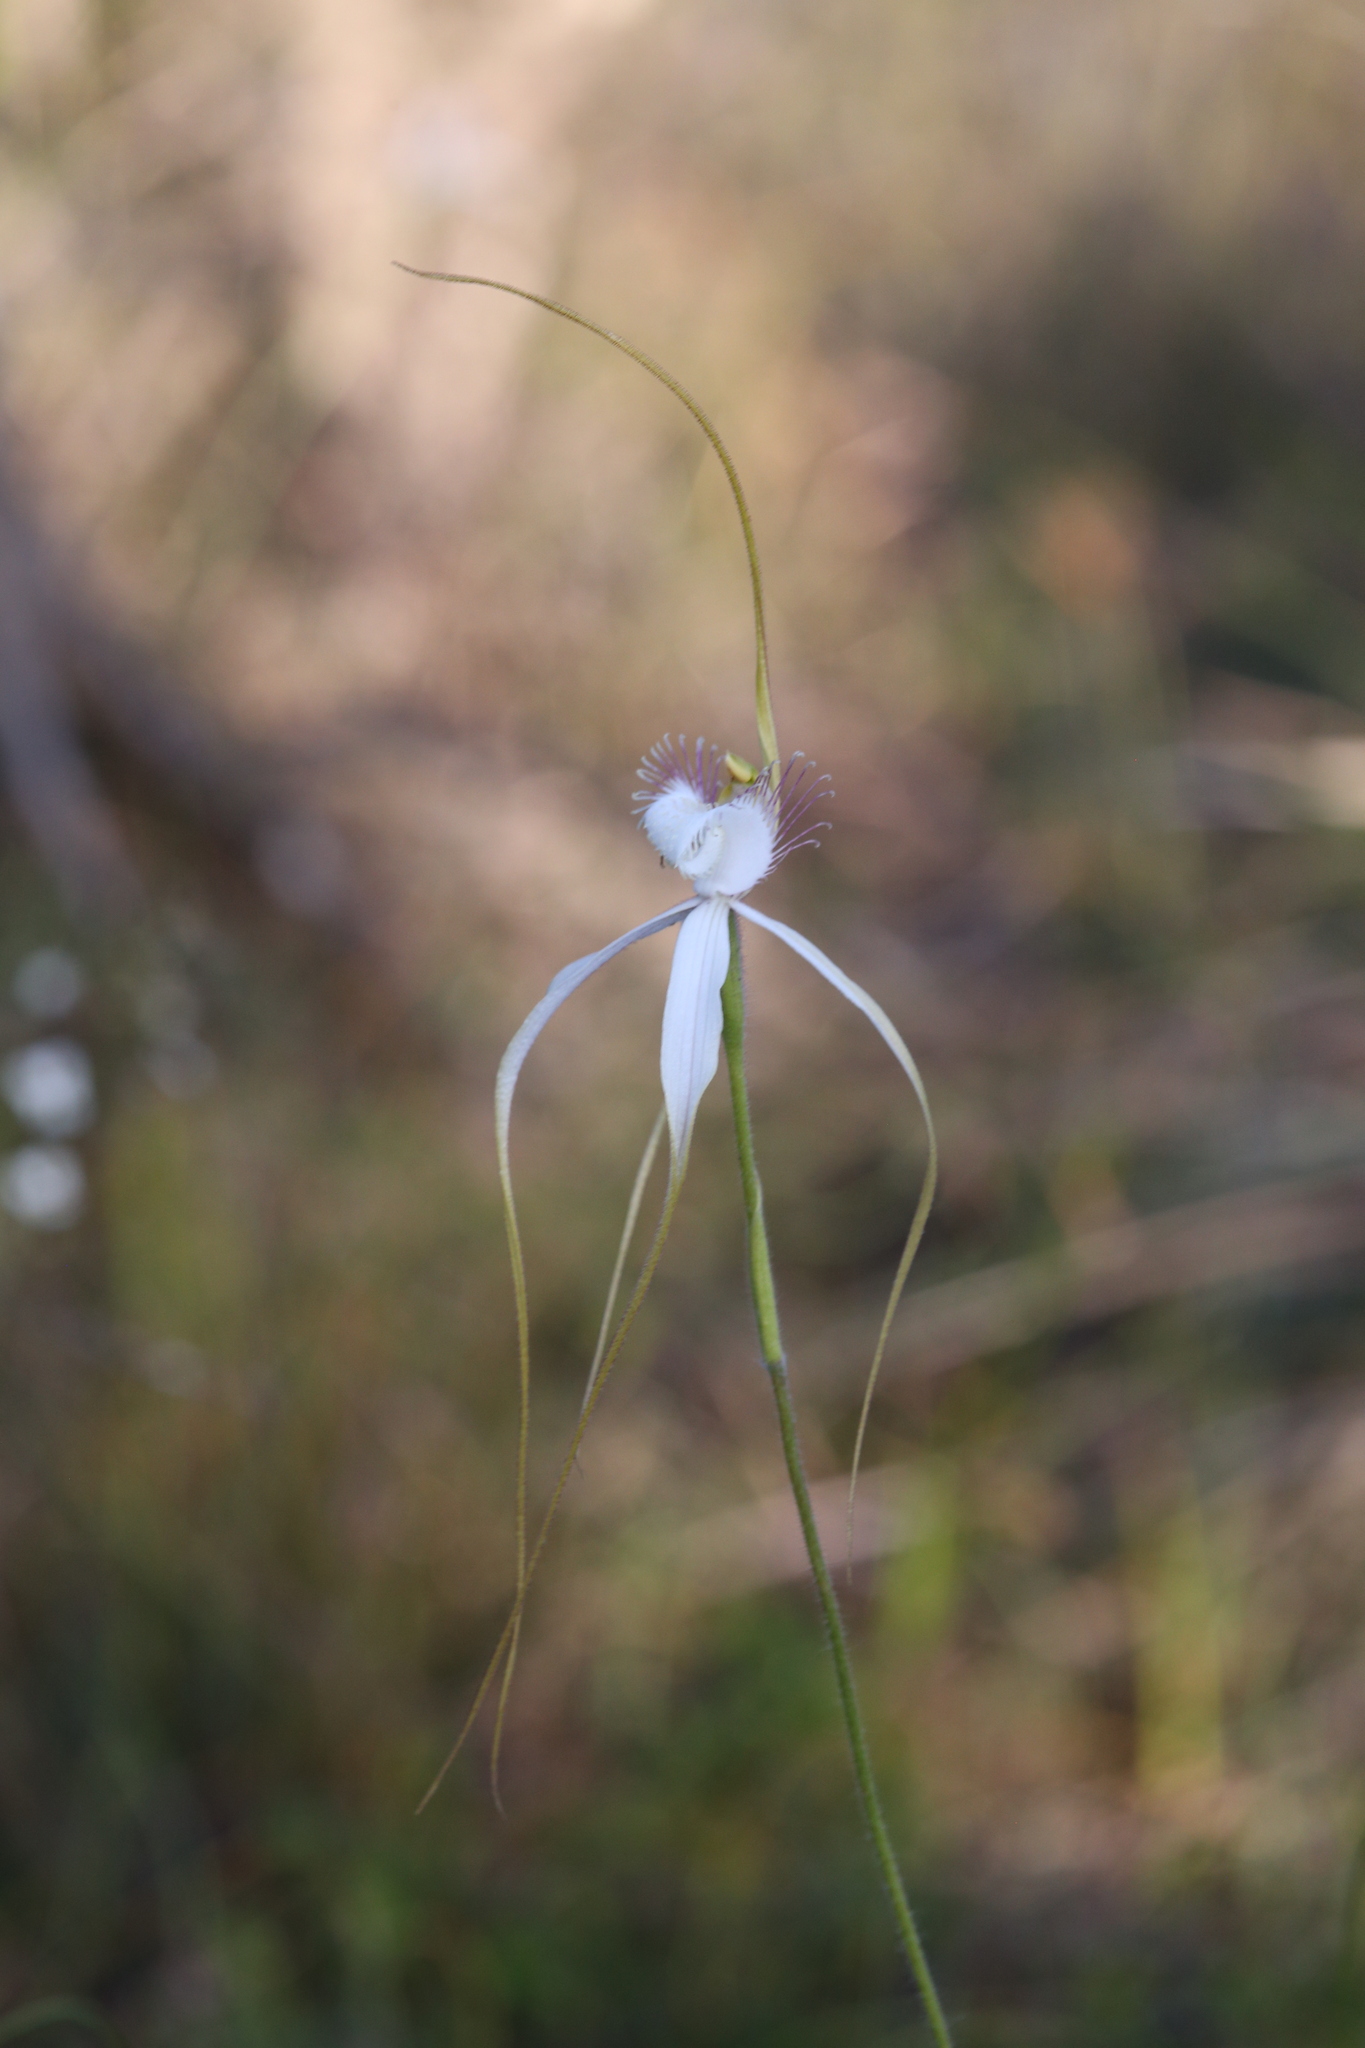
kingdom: Plantae
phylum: Tracheophyta
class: Liliopsida
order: Asparagales
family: Orchidaceae
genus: Caladenia
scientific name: Caladenia speciosa
